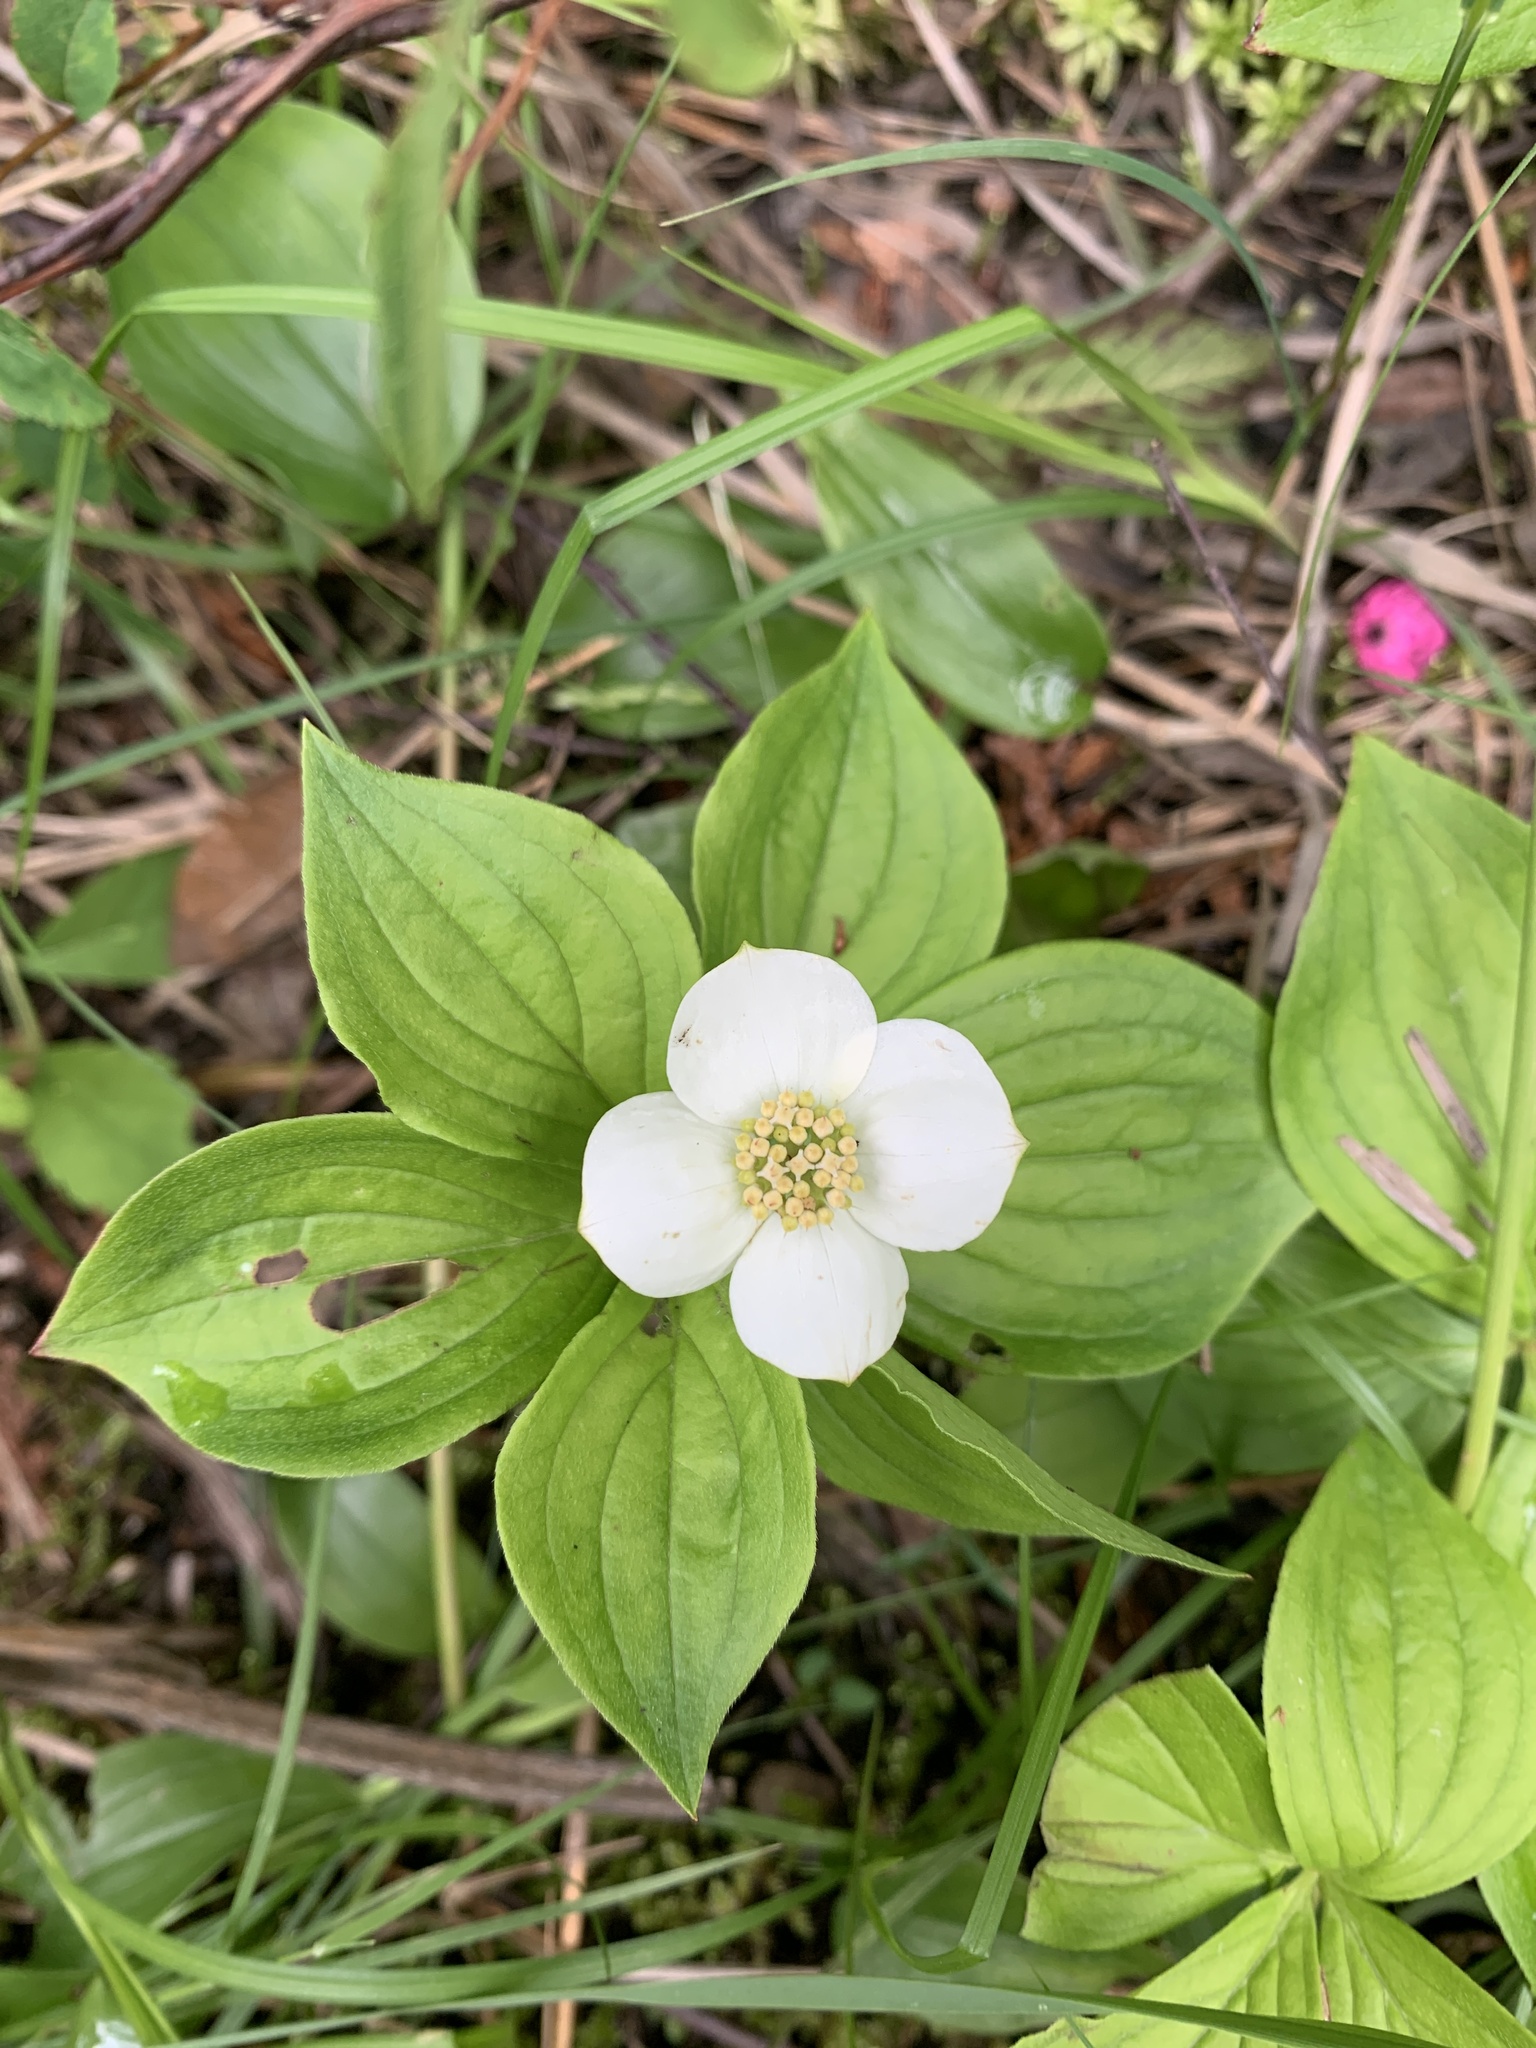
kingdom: Plantae
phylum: Tracheophyta
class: Magnoliopsida
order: Cornales
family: Cornaceae
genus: Cornus
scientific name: Cornus canadensis
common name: Creeping dogwood
